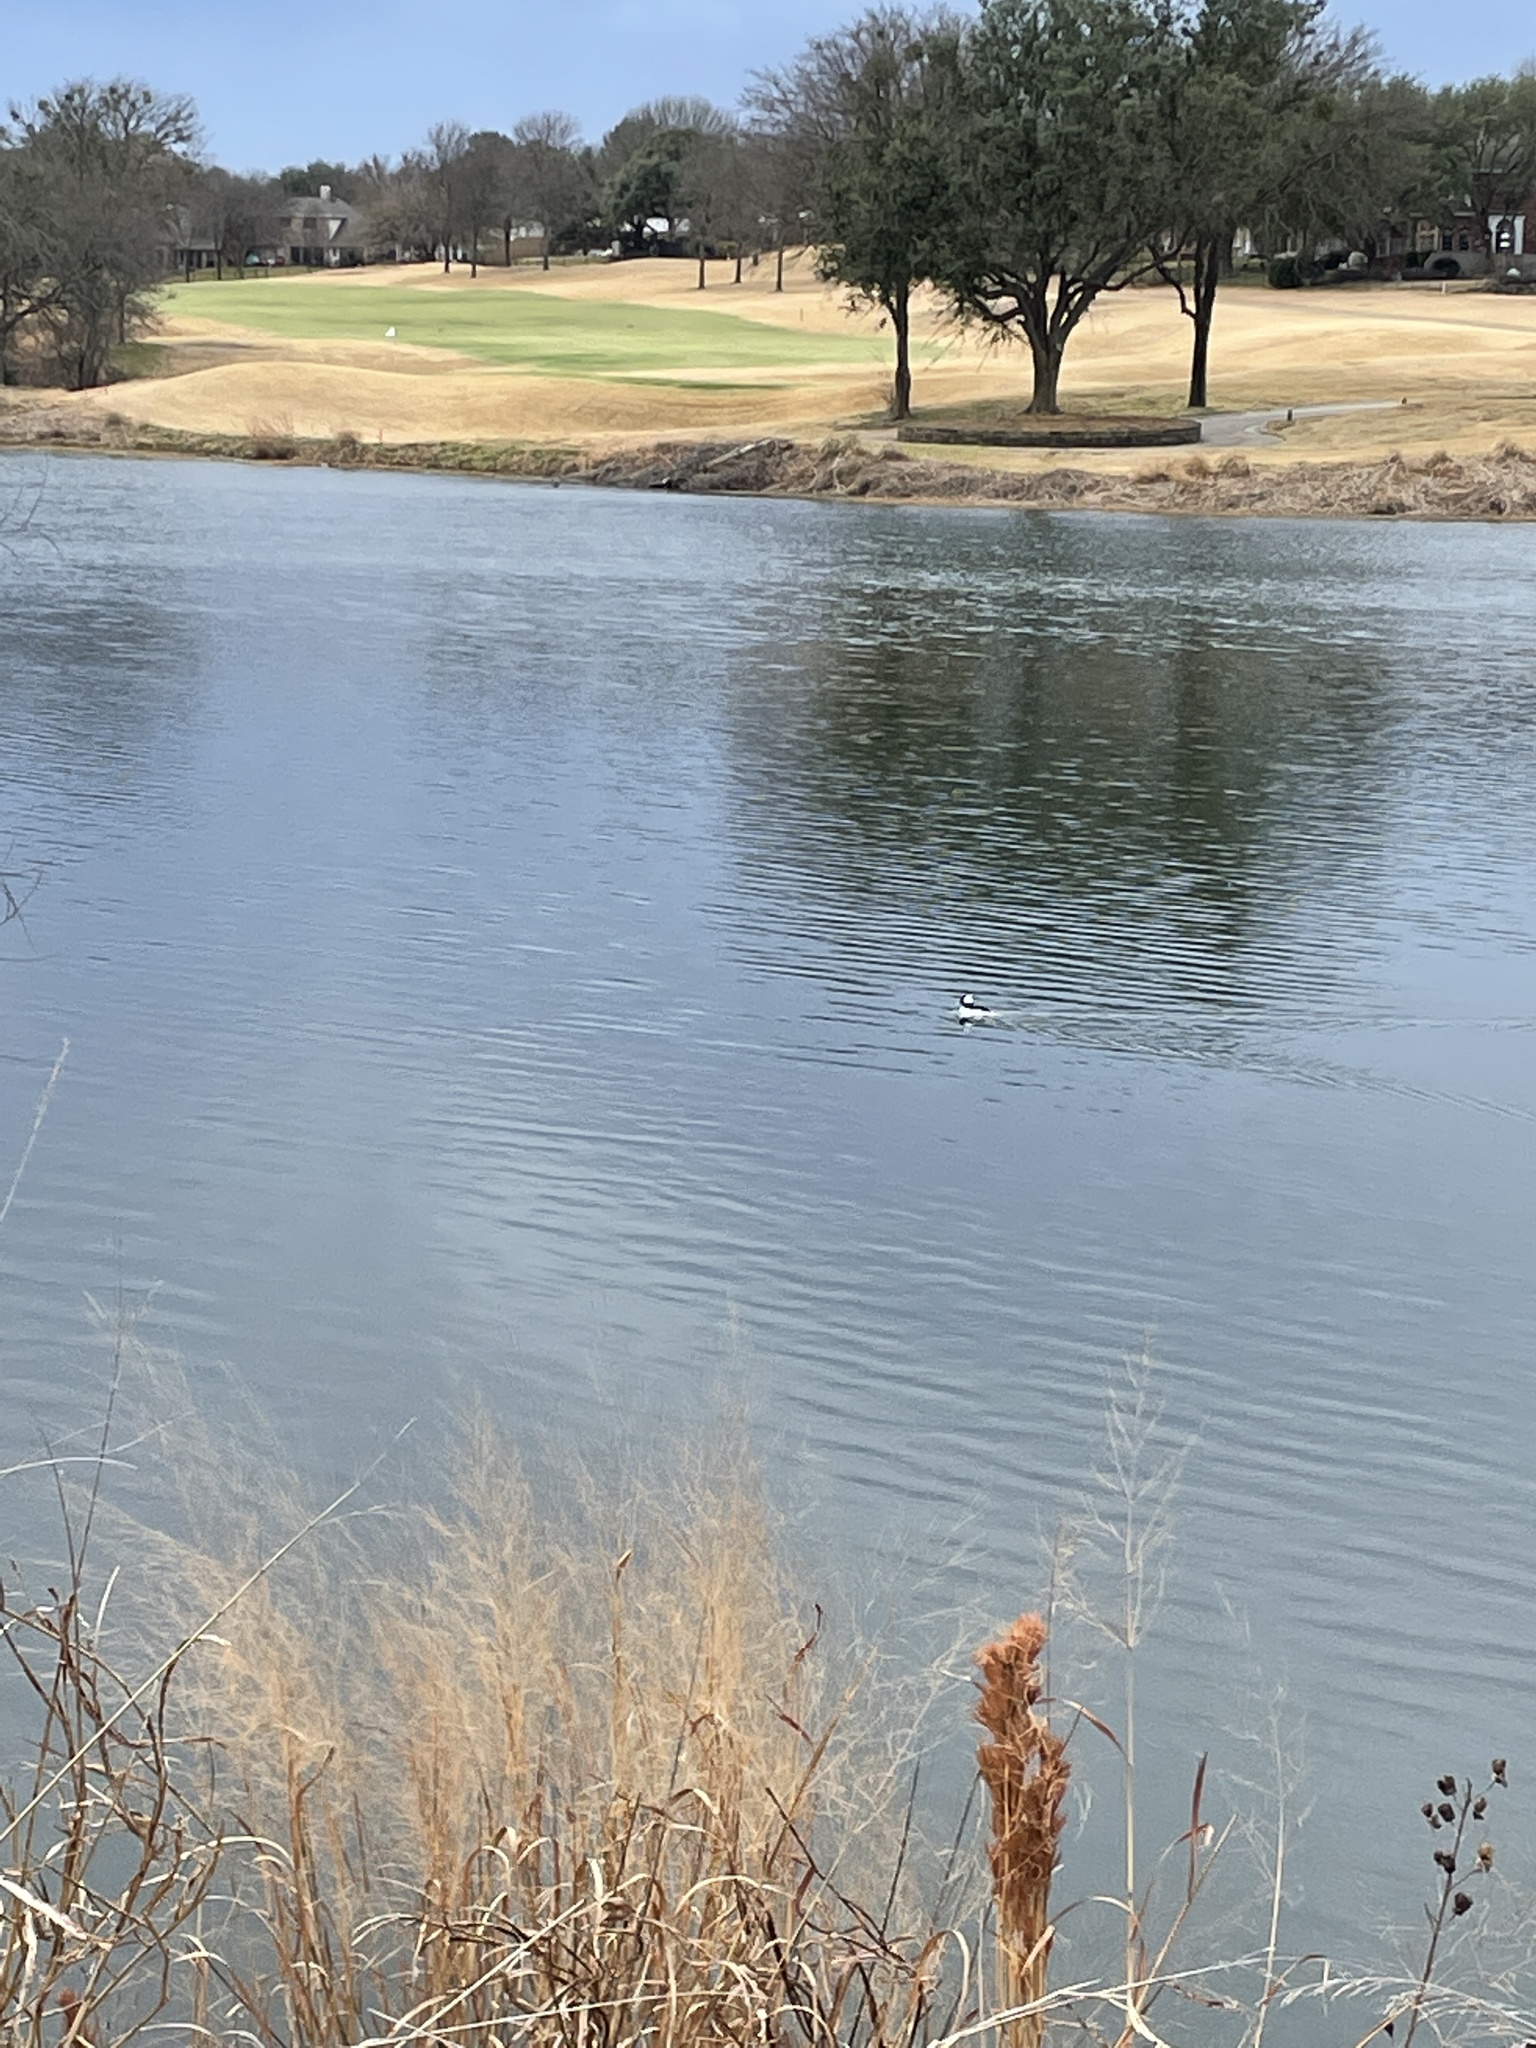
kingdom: Animalia
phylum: Chordata
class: Aves
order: Anseriformes
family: Anatidae
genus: Bucephala
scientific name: Bucephala albeola
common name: Bufflehead
